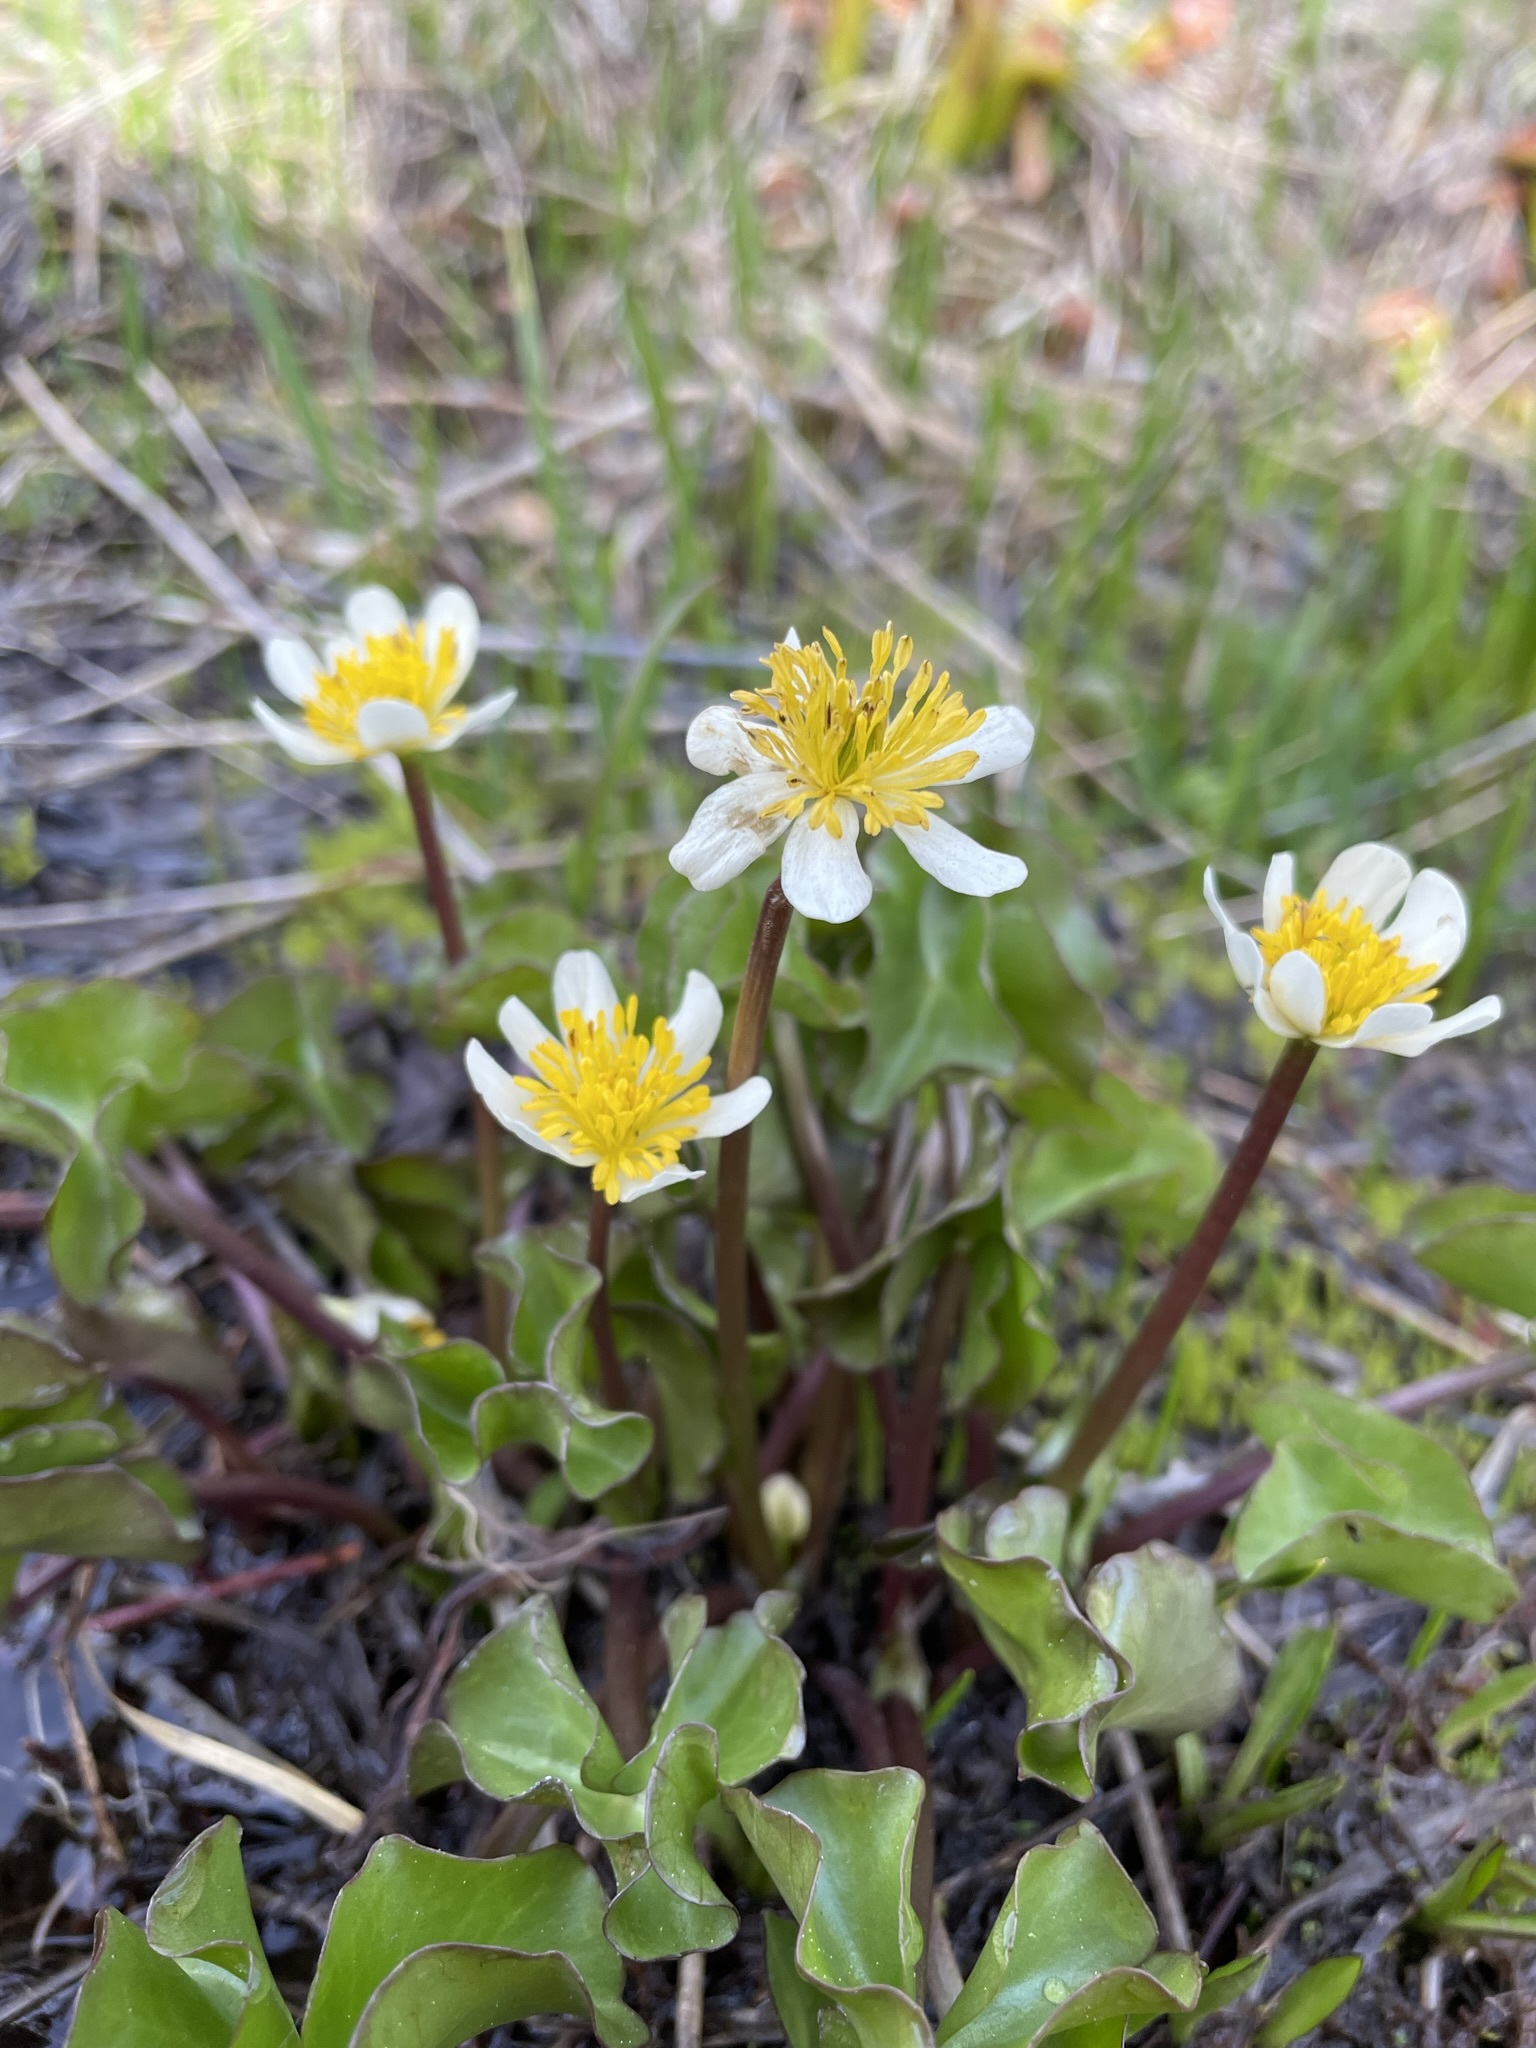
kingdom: Plantae
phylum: Tracheophyta
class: Magnoliopsida
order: Ranunculales
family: Ranunculaceae
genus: Caltha
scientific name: Caltha leptosepala
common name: Elkslip
